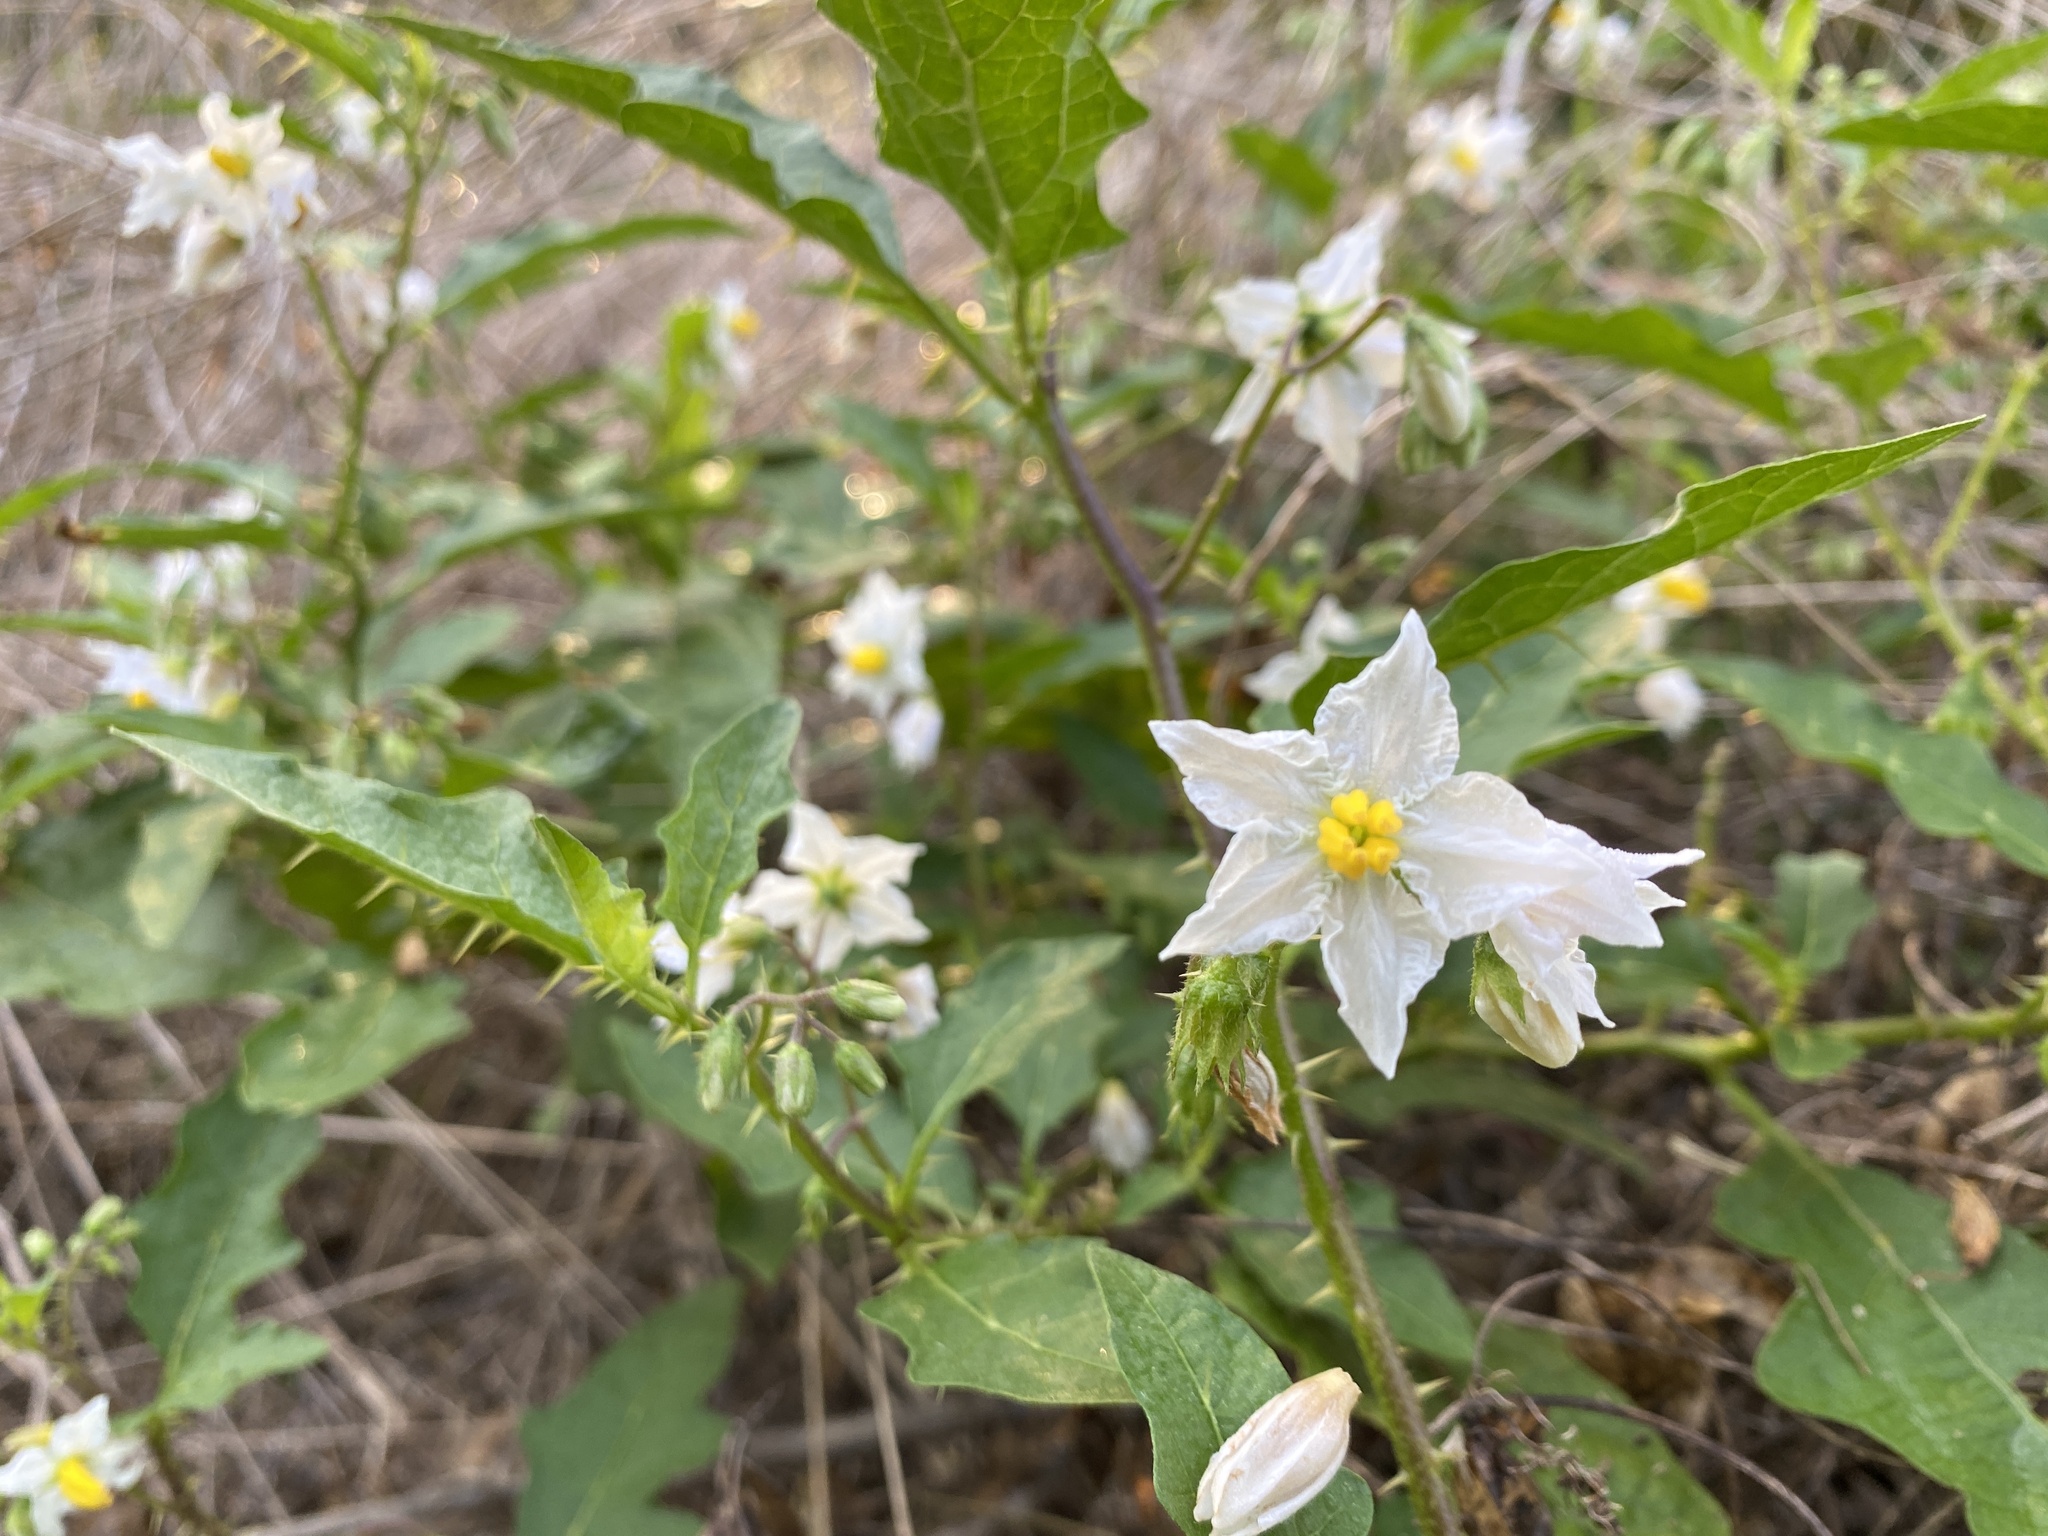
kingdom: Plantae
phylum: Tracheophyta
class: Magnoliopsida
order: Solanales
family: Solanaceae
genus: Solanum
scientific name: Solanum carolinense
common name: Horse-nettle
